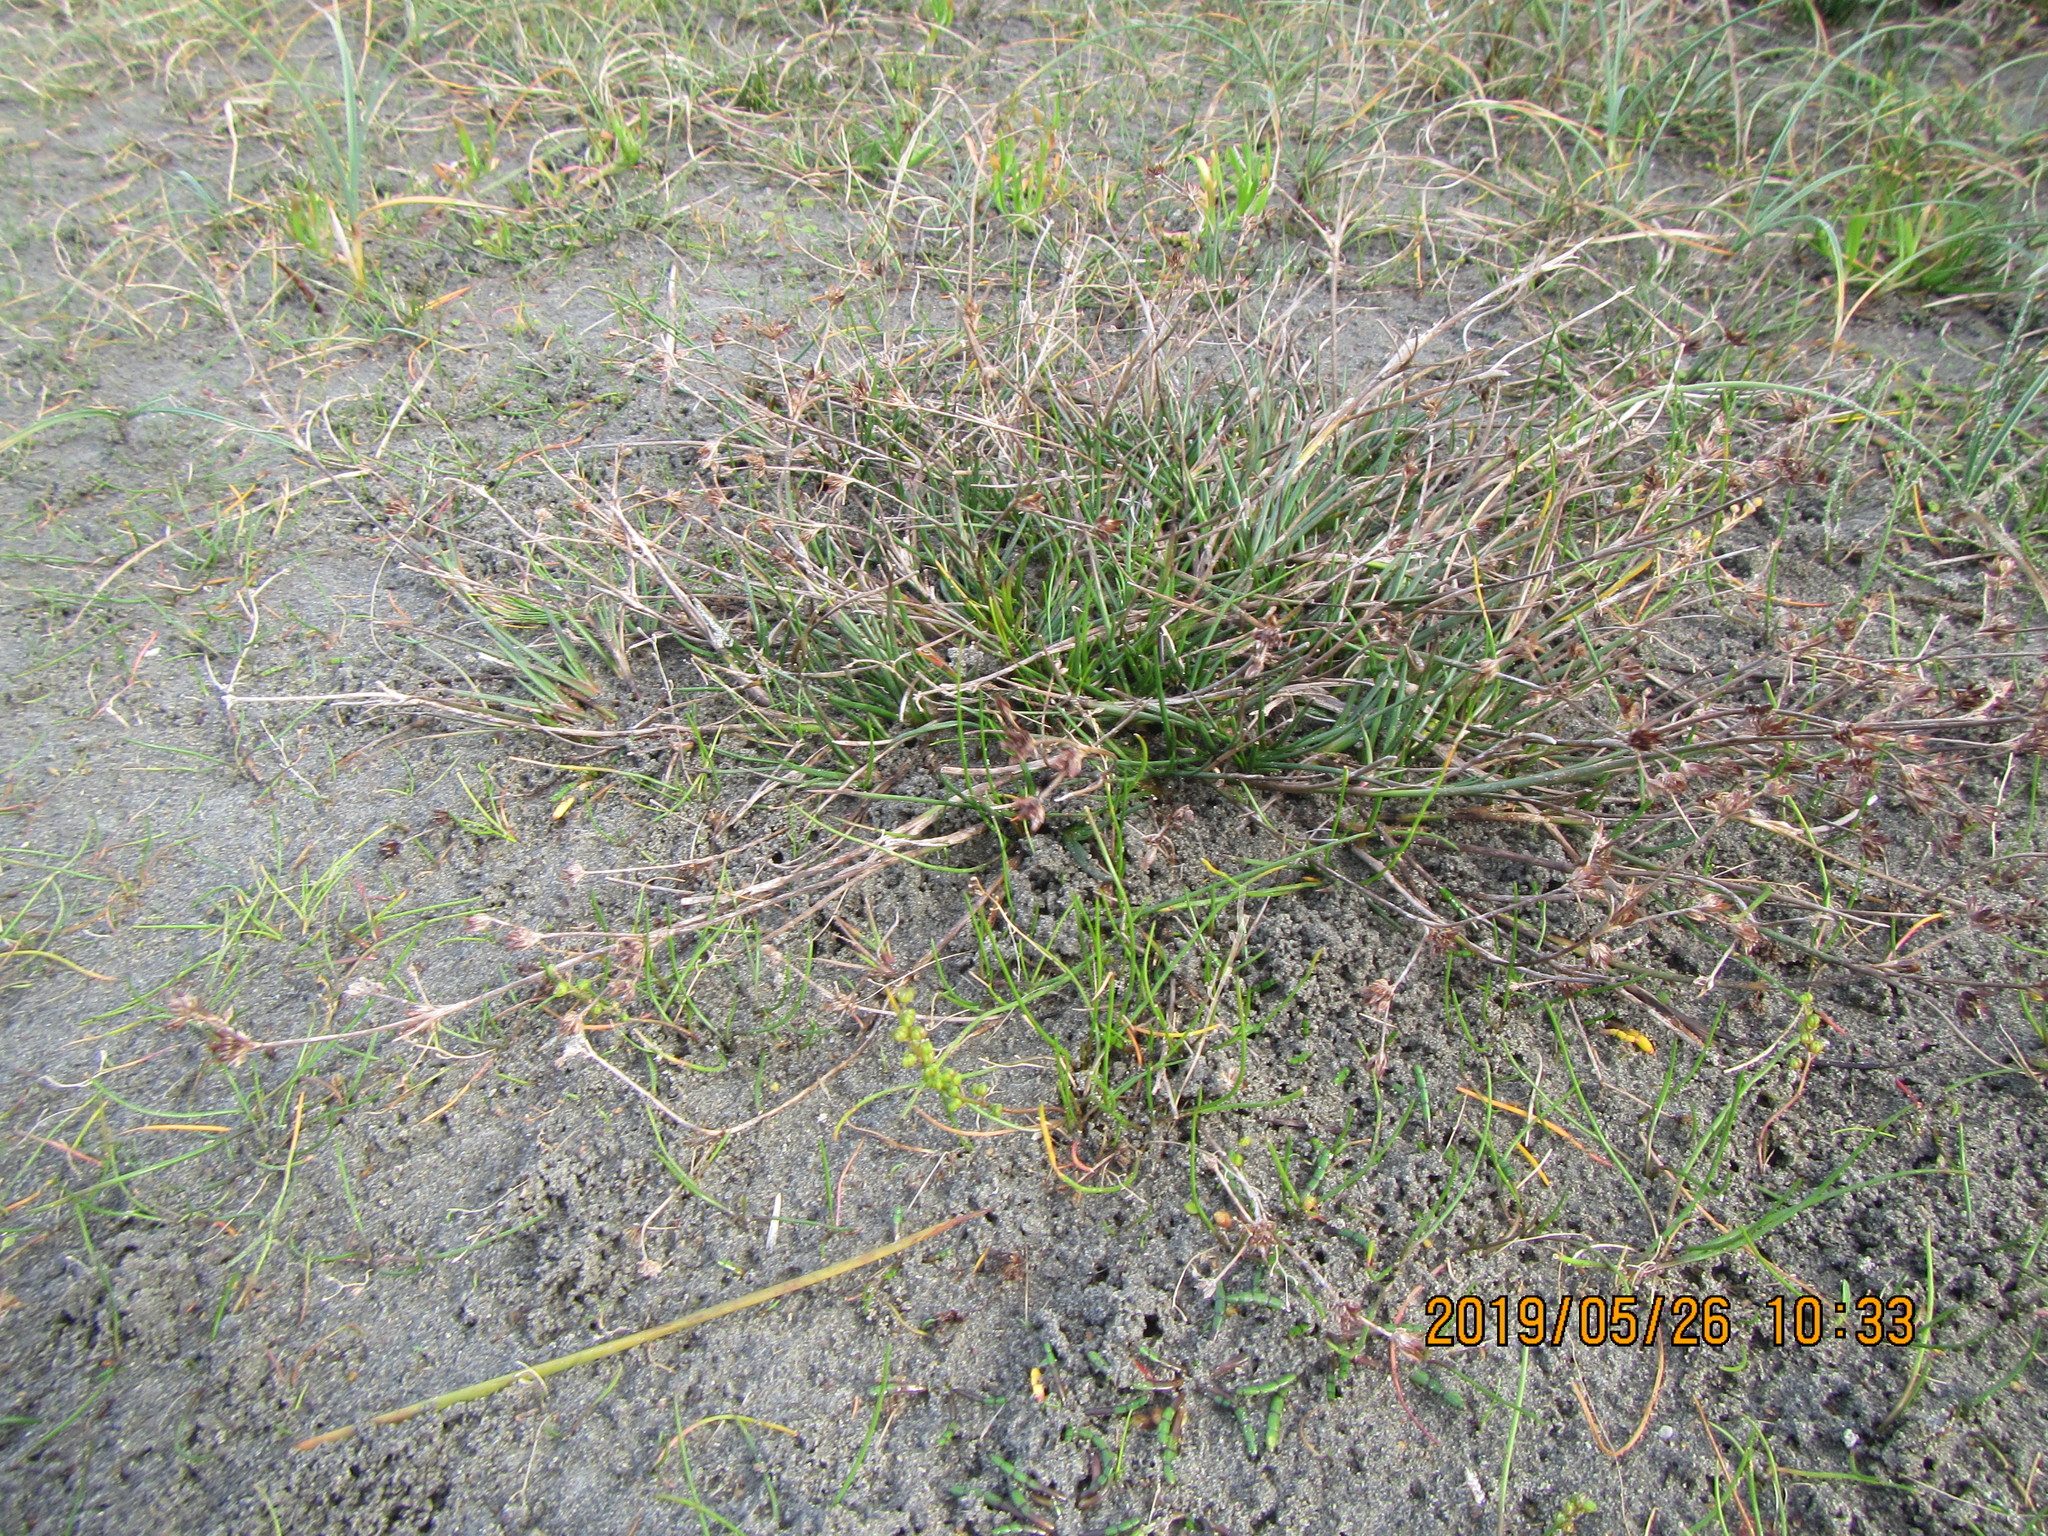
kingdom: Plantae
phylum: Tracheophyta
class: Liliopsida
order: Poales
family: Juncaceae
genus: Juncus
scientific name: Juncus articulatus
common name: Jointed rush
